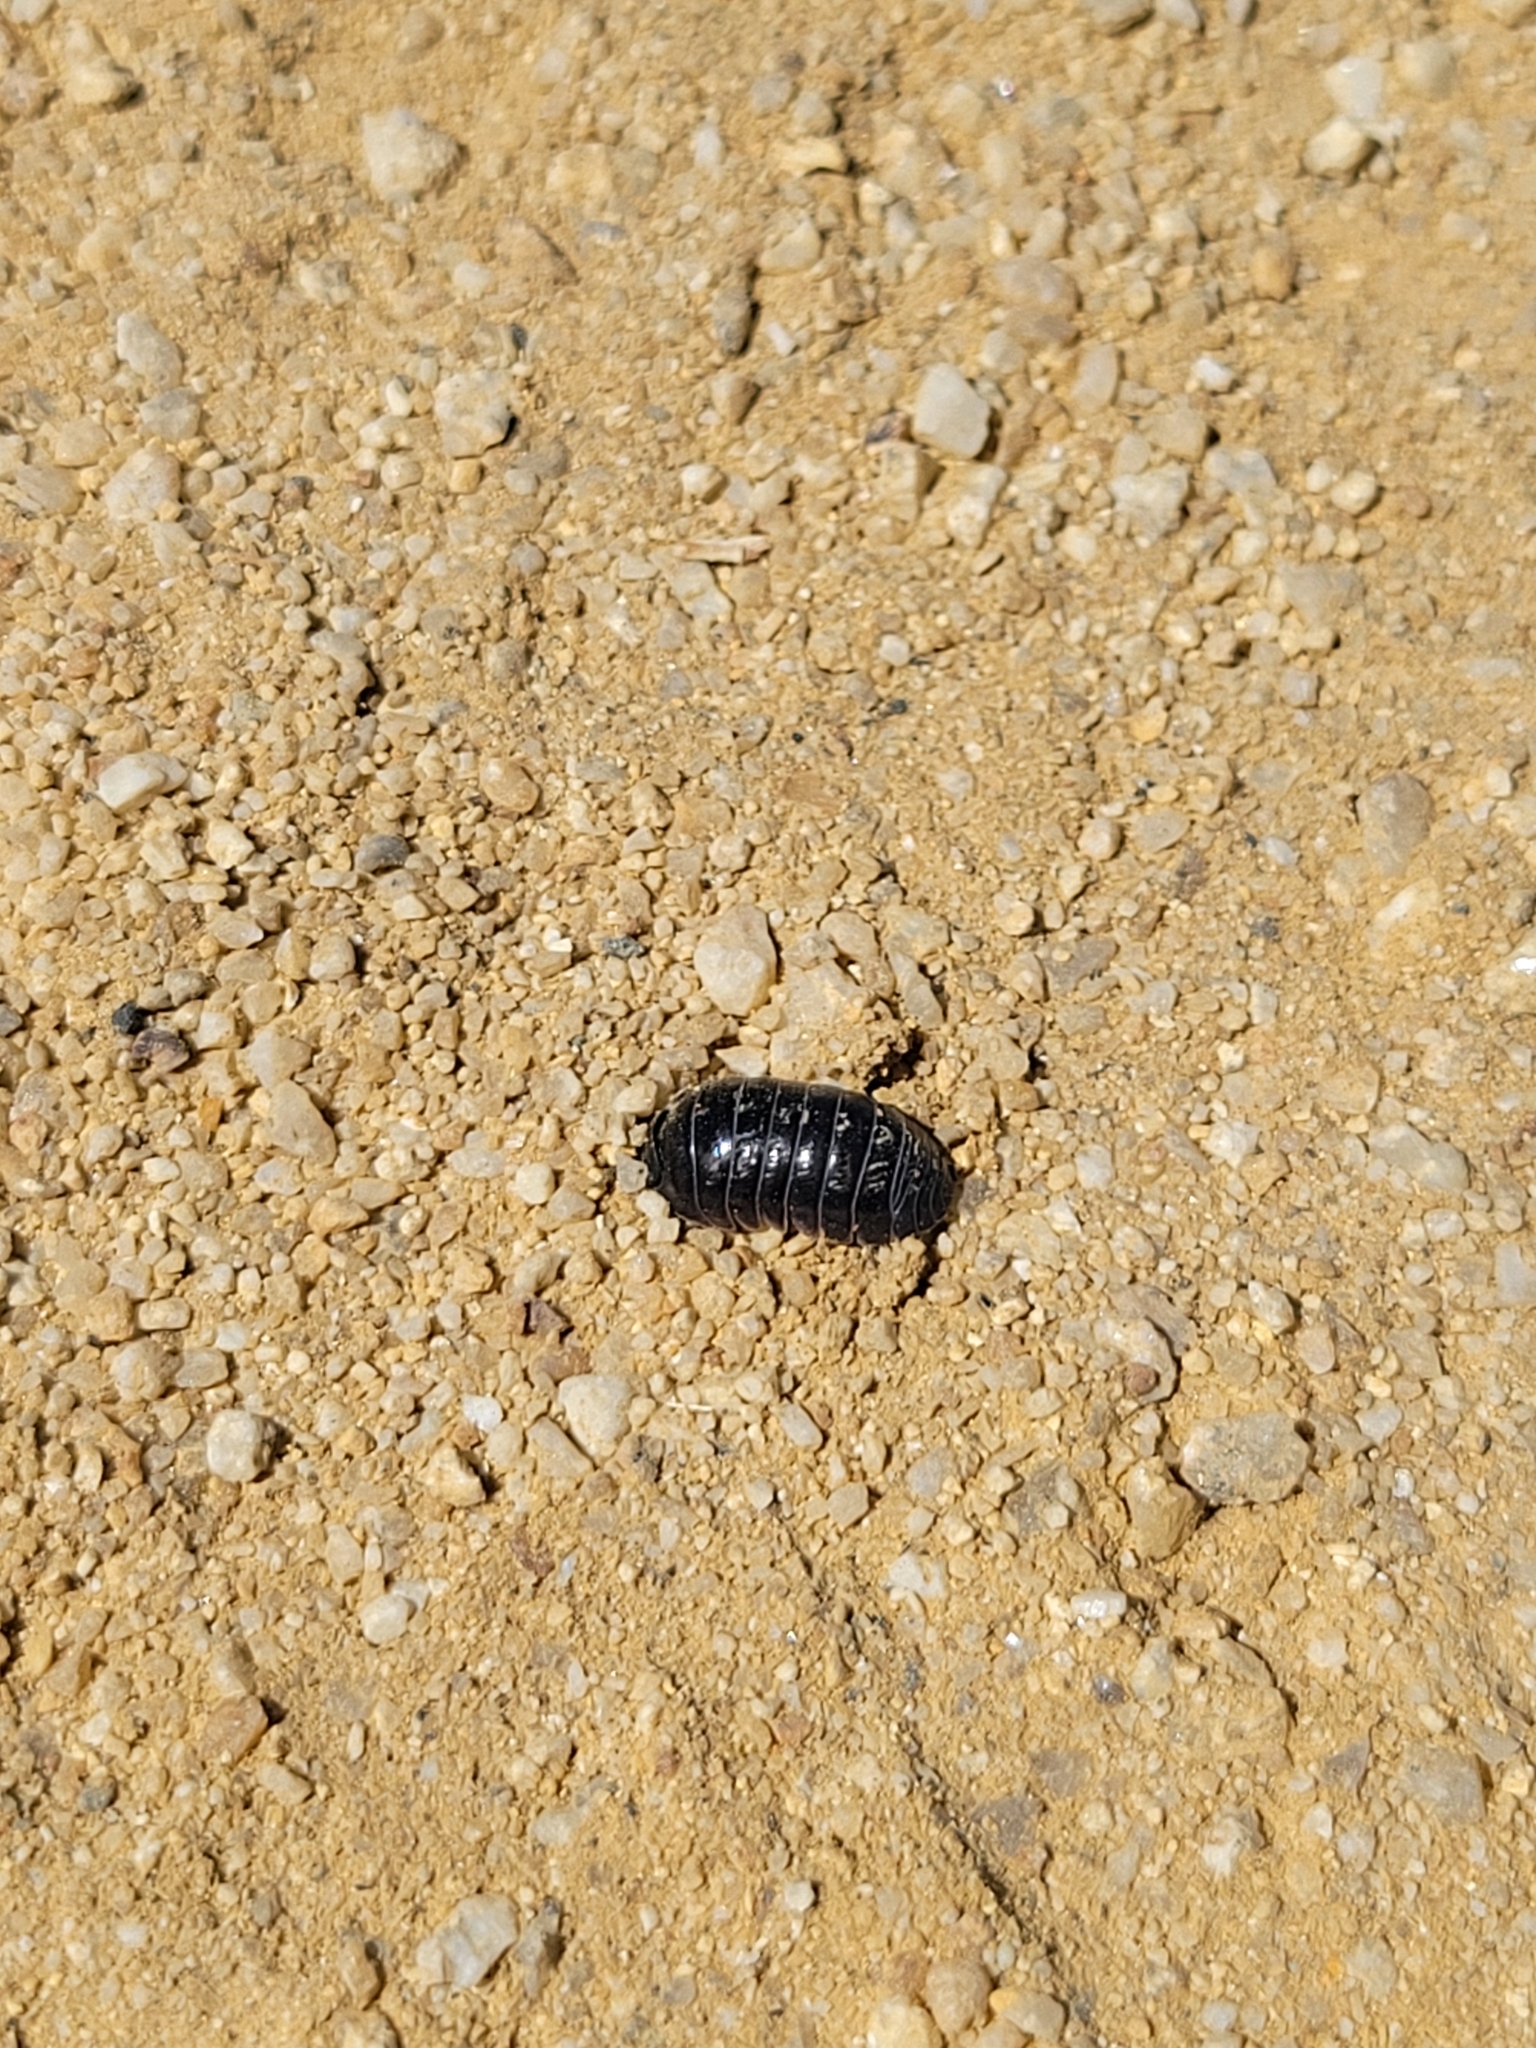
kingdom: Animalia
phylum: Arthropoda
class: Malacostraca
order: Isopoda
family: Armadillidiidae
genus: Armadillidium
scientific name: Armadillidium vulgare
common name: Common pill woodlouse
